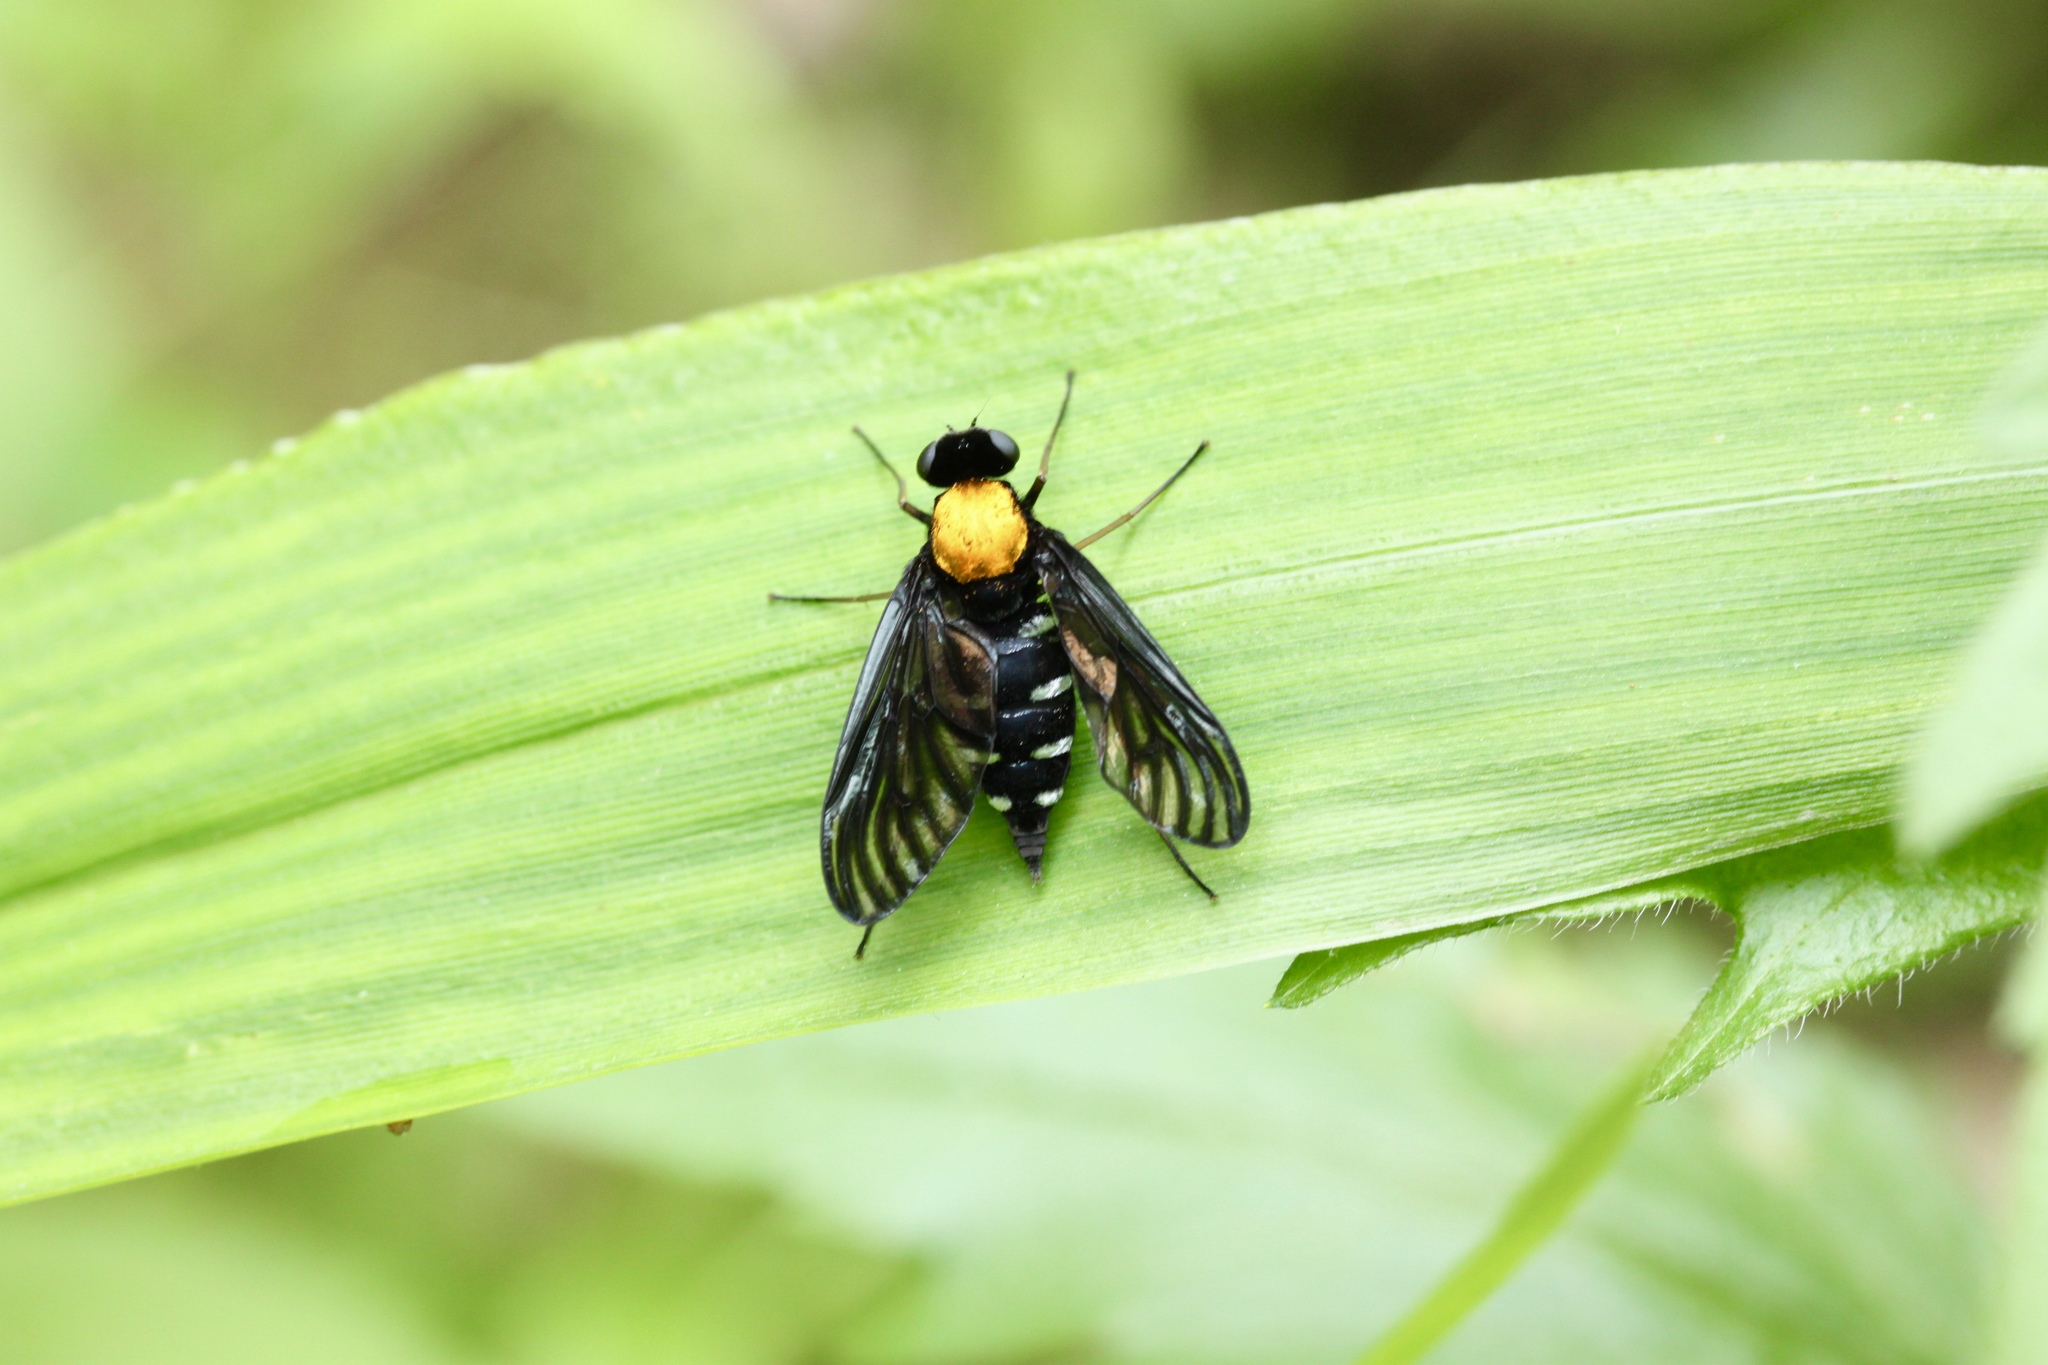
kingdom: Animalia
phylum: Arthropoda
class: Insecta
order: Diptera
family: Rhagionidae
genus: Chrysopilus
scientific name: Chrysopilus thoracicus
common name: Golden-backed snipe fly
